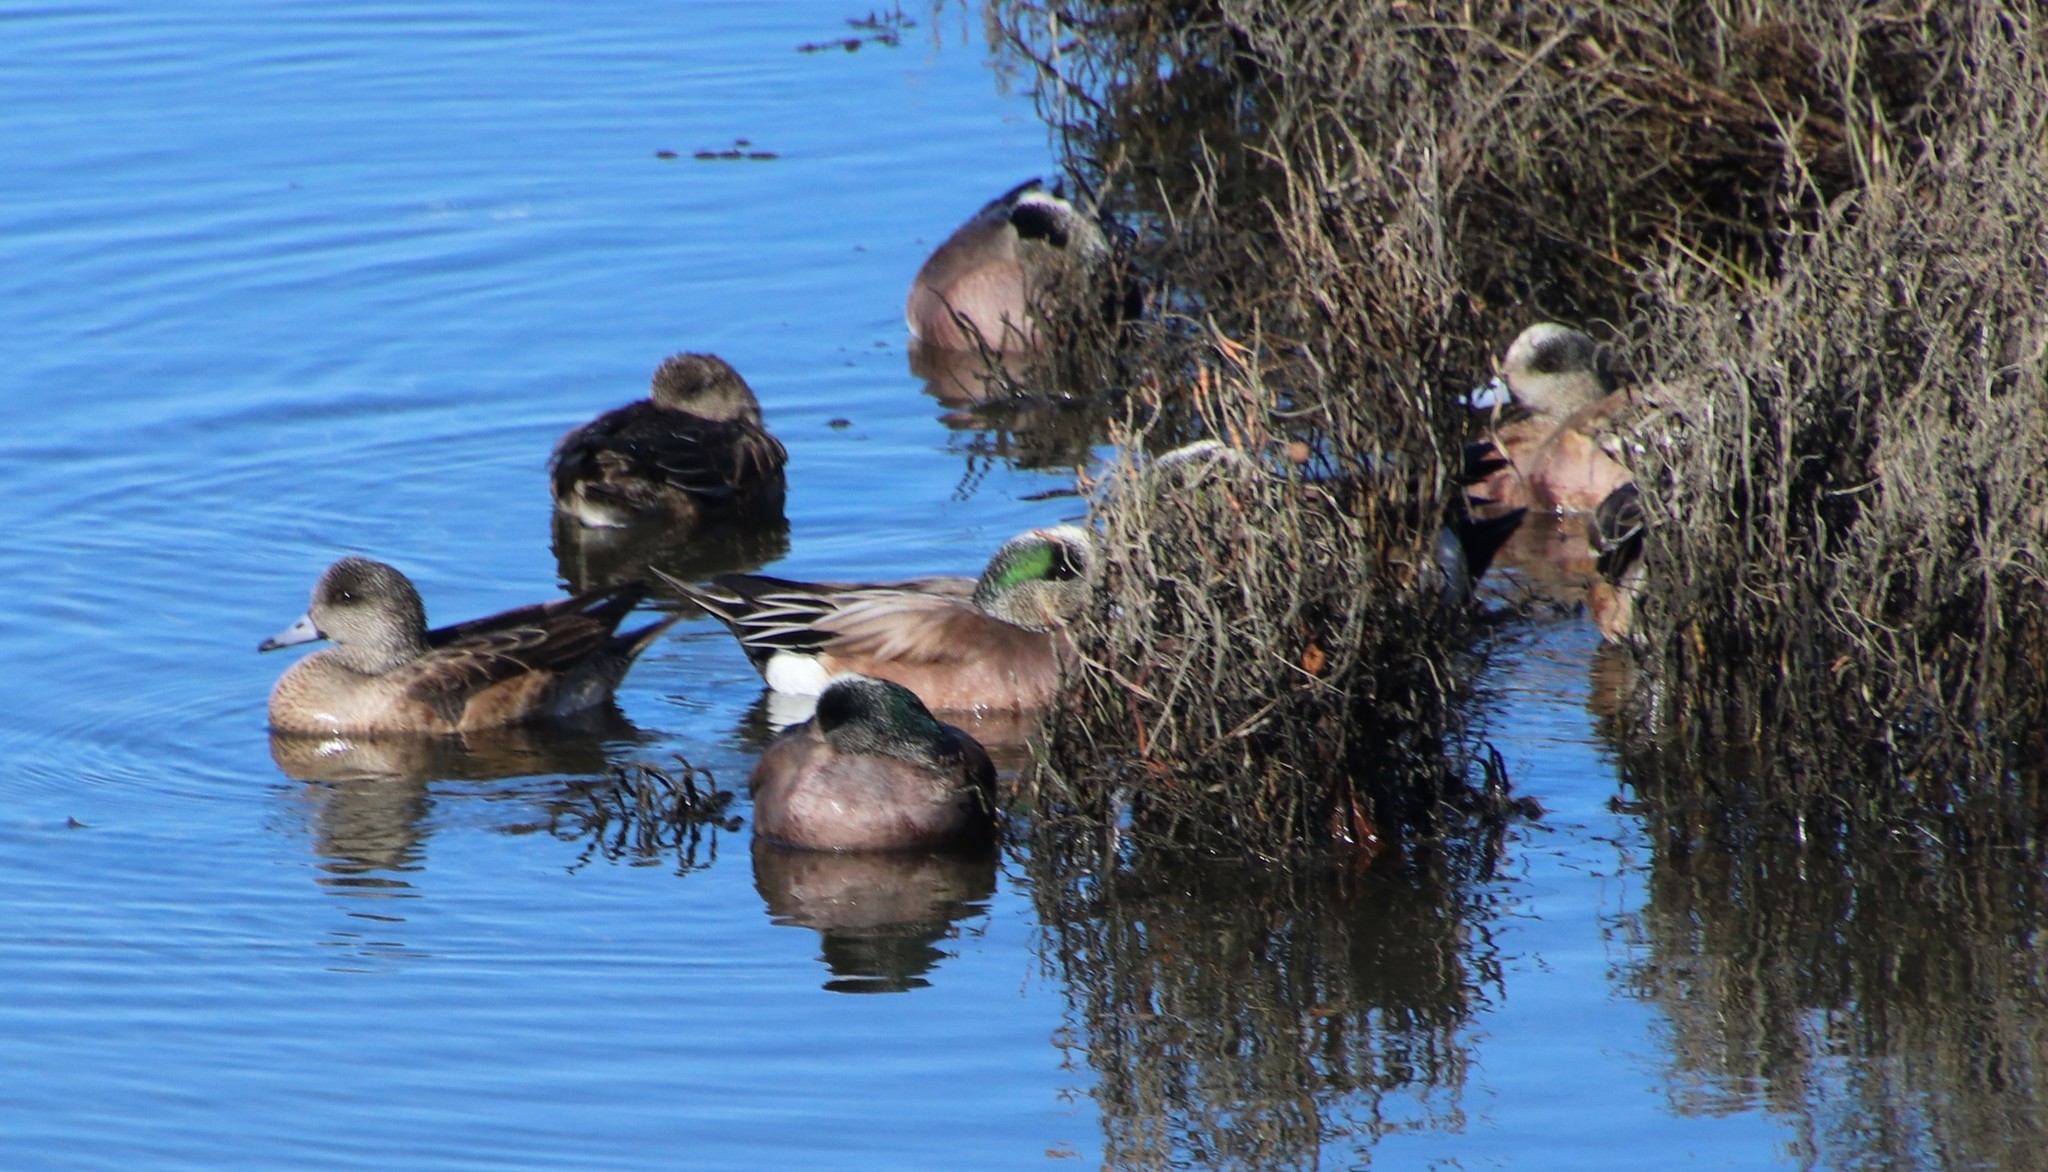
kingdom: Animalia
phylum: Chordata
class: Aves
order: Anseriformes
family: Anatidae
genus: Mareca
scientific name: Mareca americana
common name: American wigeon
